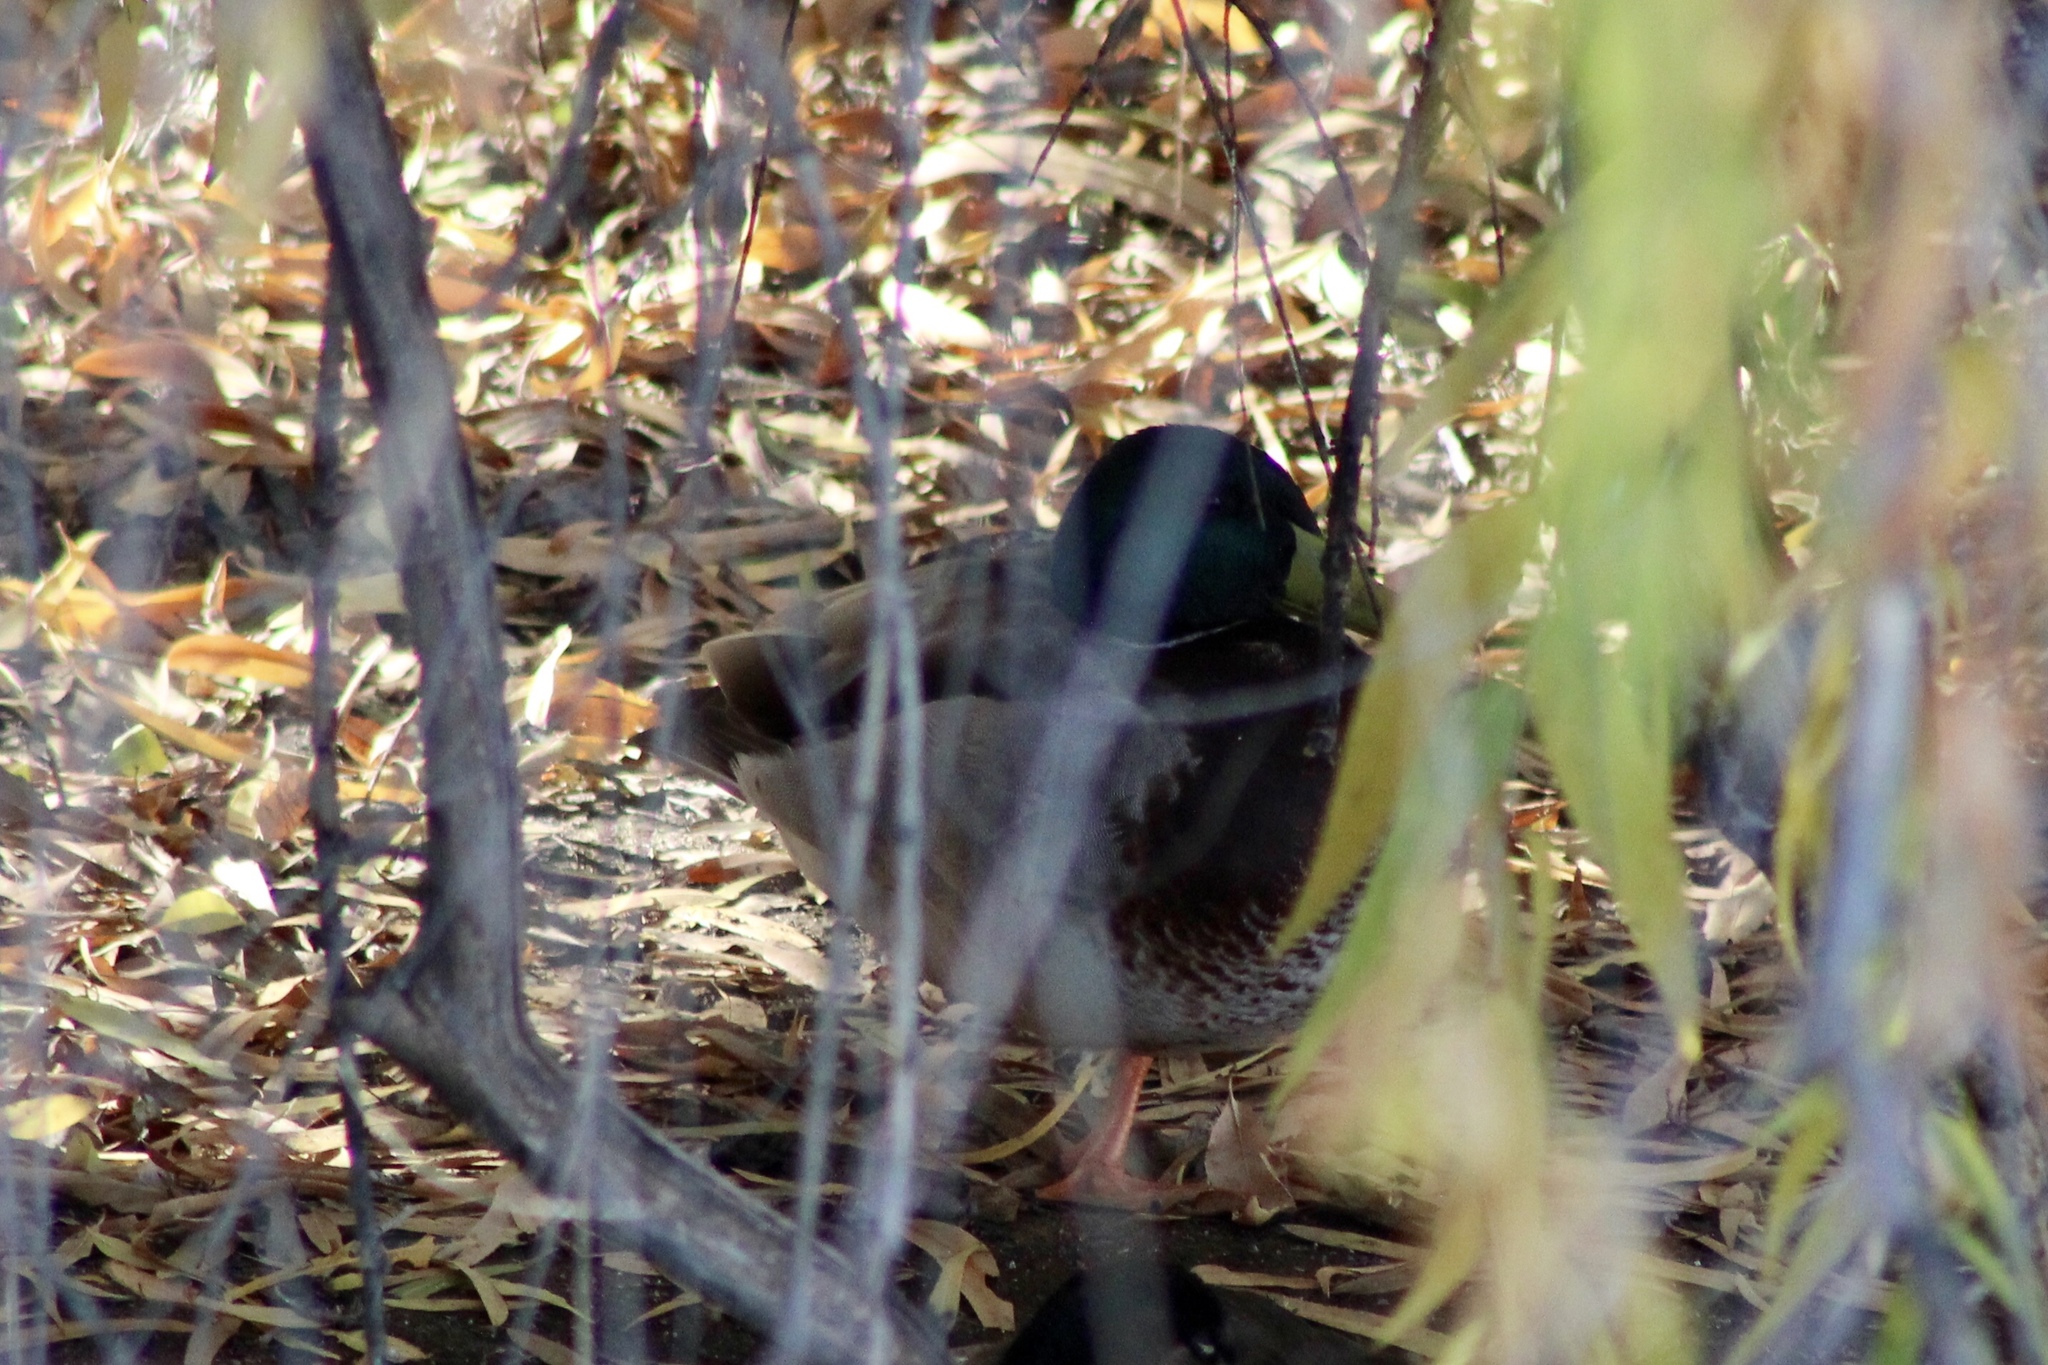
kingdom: Animalia
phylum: Chordata
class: Aves
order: Anseriformes
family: Anatidae
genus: Anas
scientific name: Anas platyrhynchos
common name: Mallard
